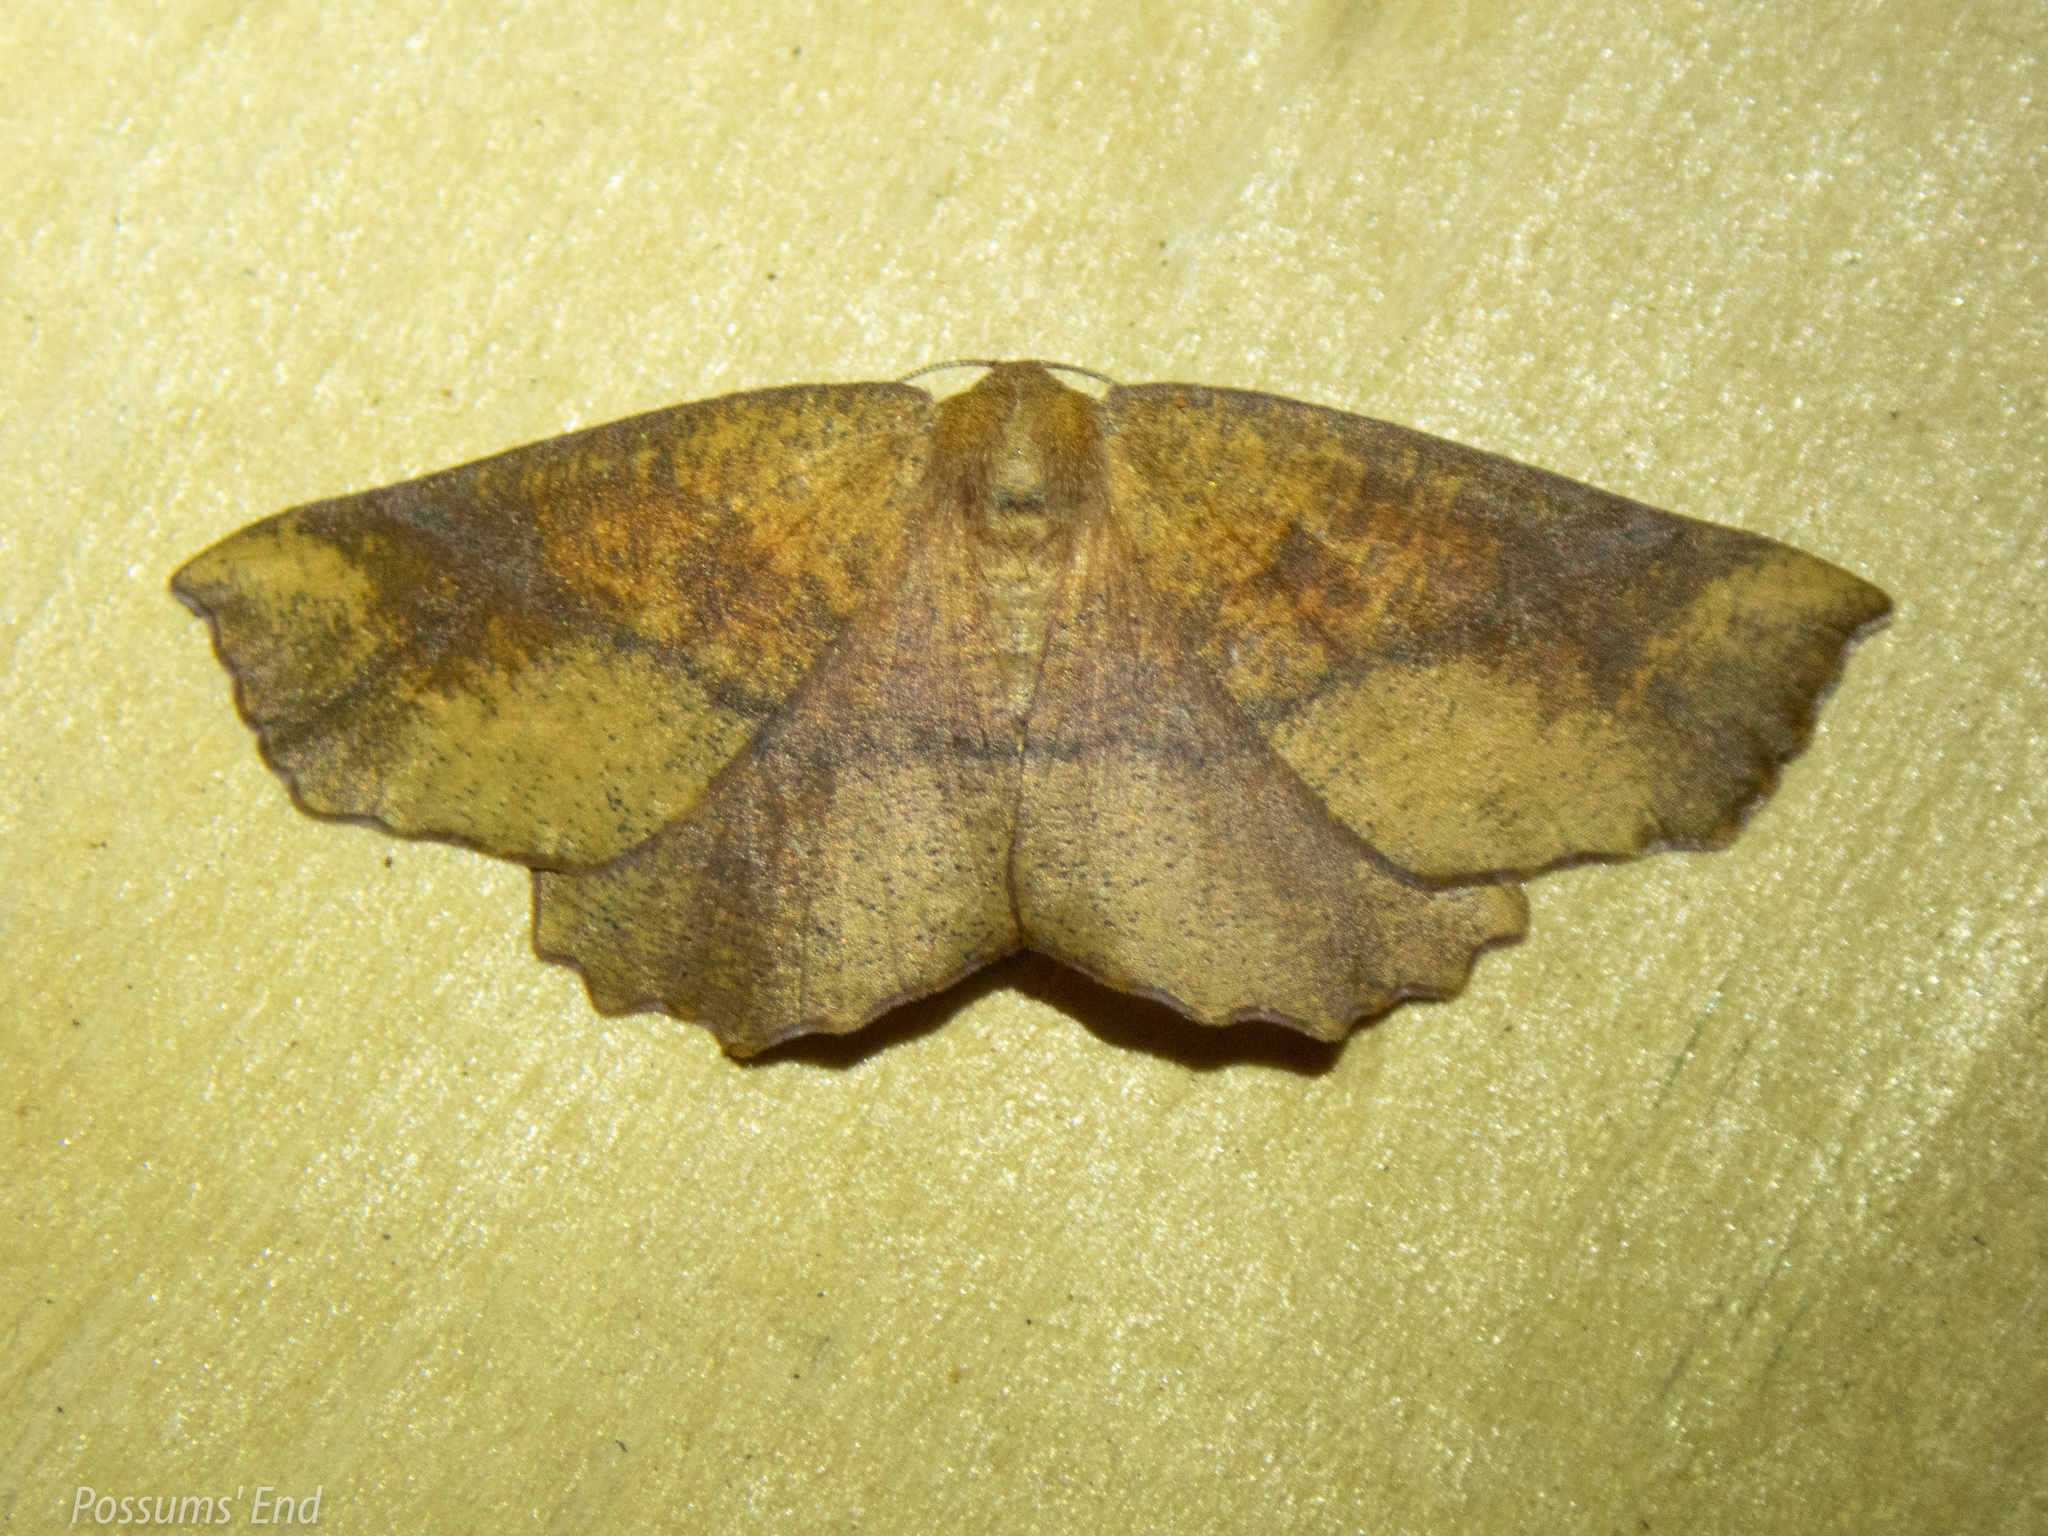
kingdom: Animalia
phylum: Arthropoda
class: Insecta
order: Lepidoptera
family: Geometridae
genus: Xyridacma
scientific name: Xyridacma ustaria
